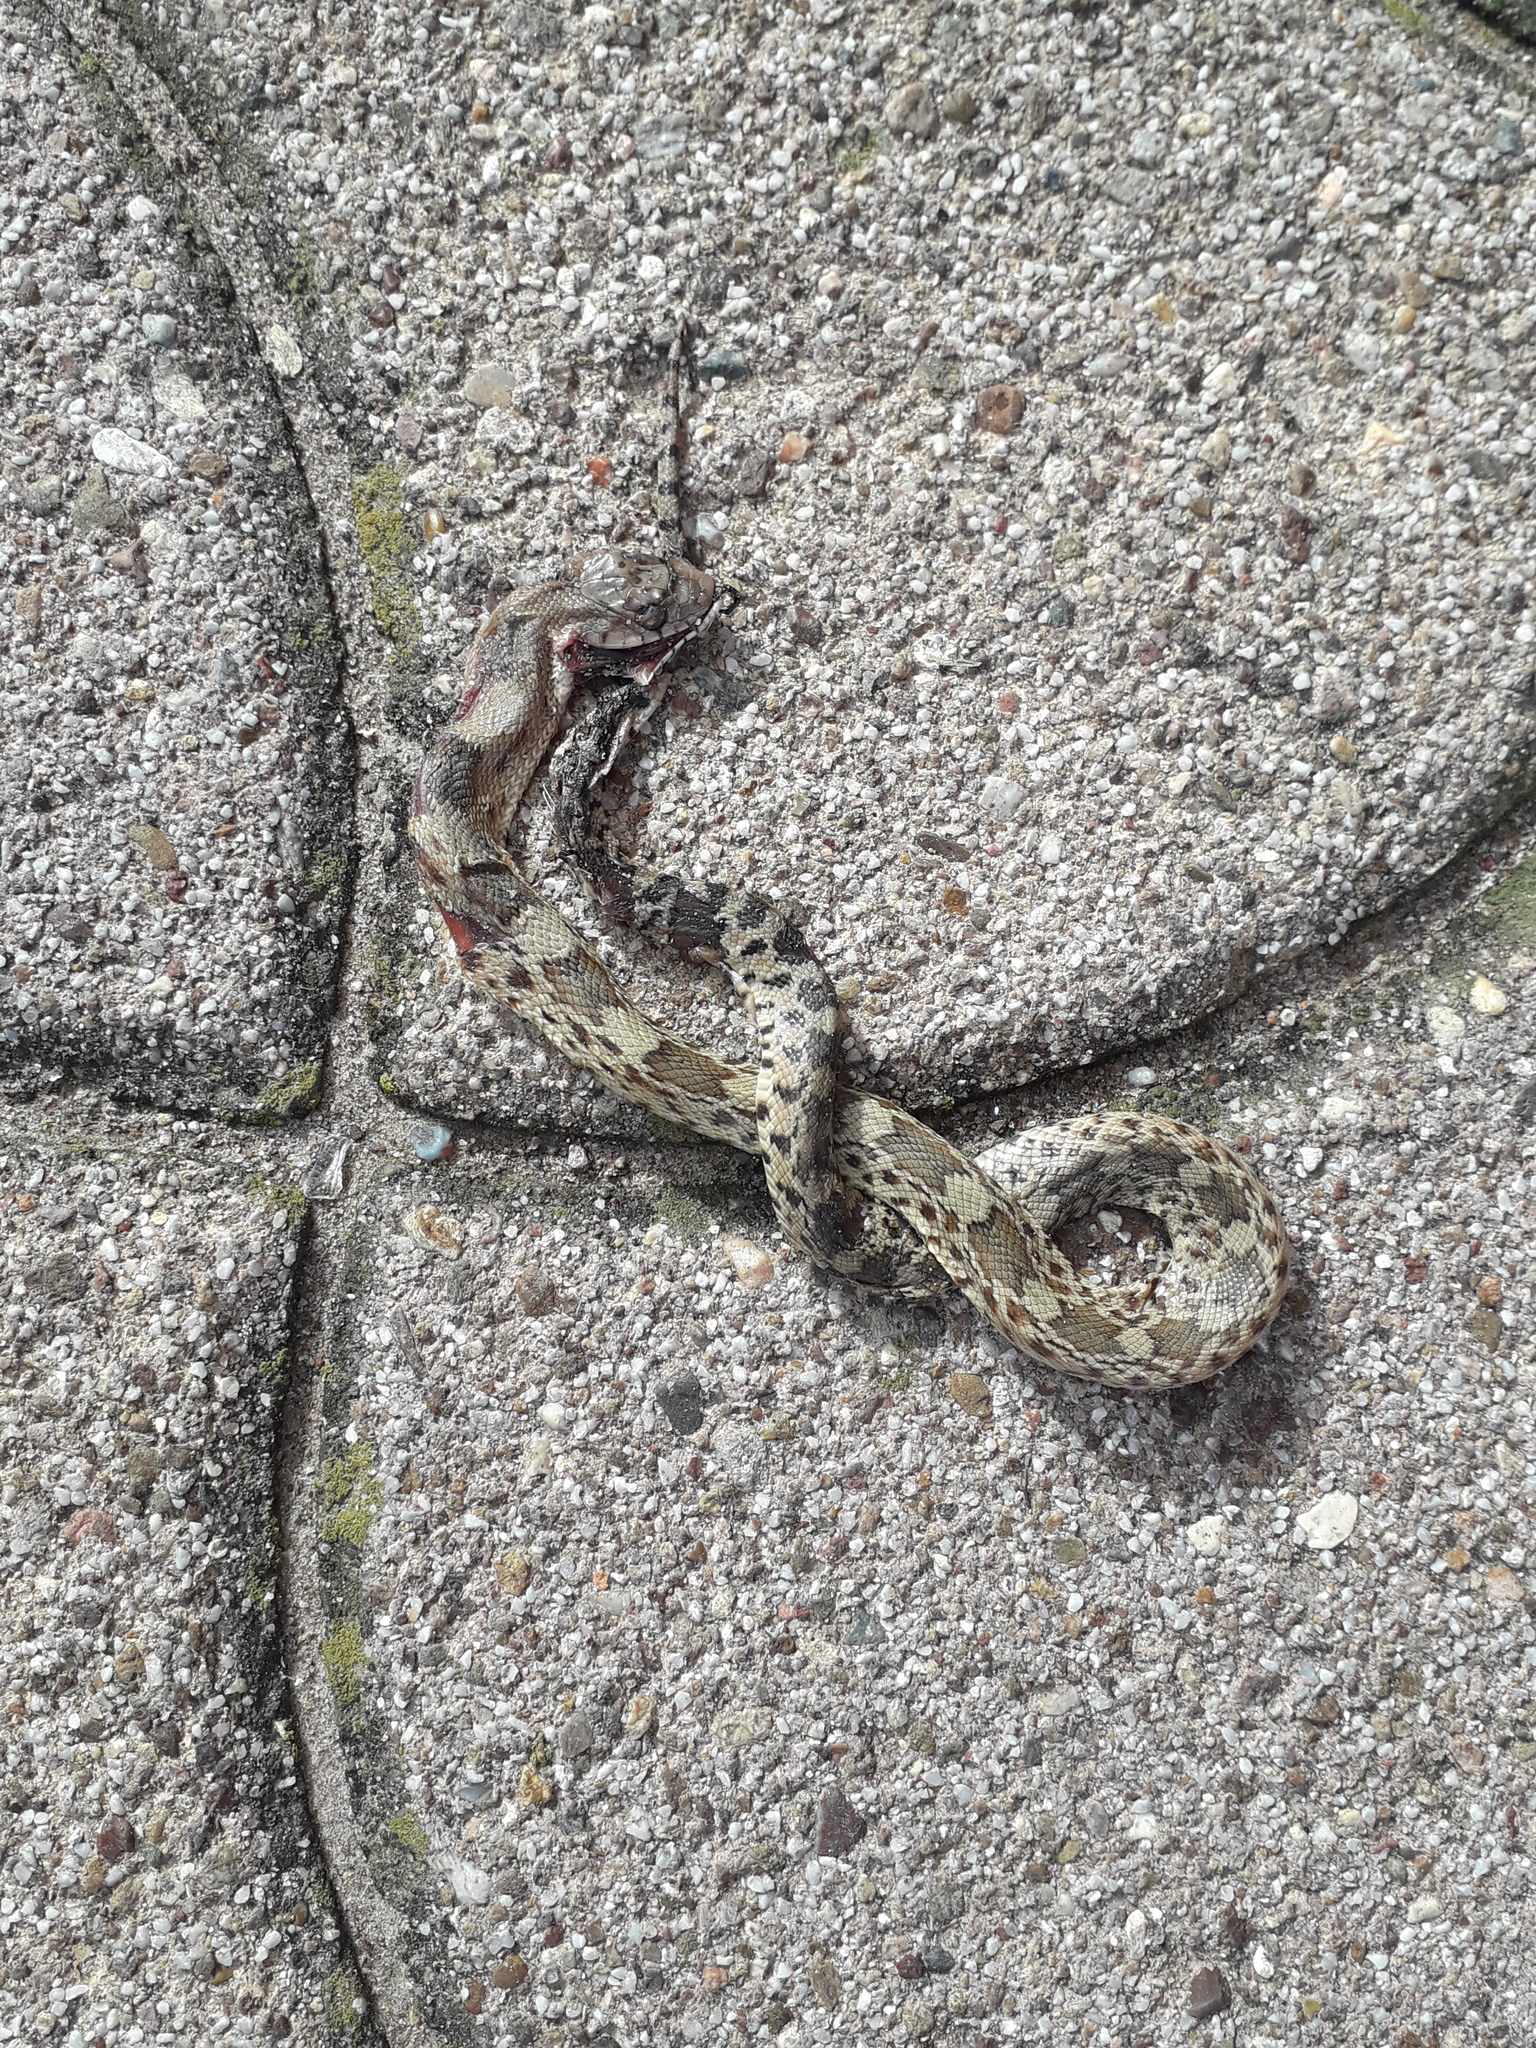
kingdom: Animalia
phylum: Chordata
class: Squamata
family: Colubridae
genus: Pituophis
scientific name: Pituophis deppei
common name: Mexican bull snake
